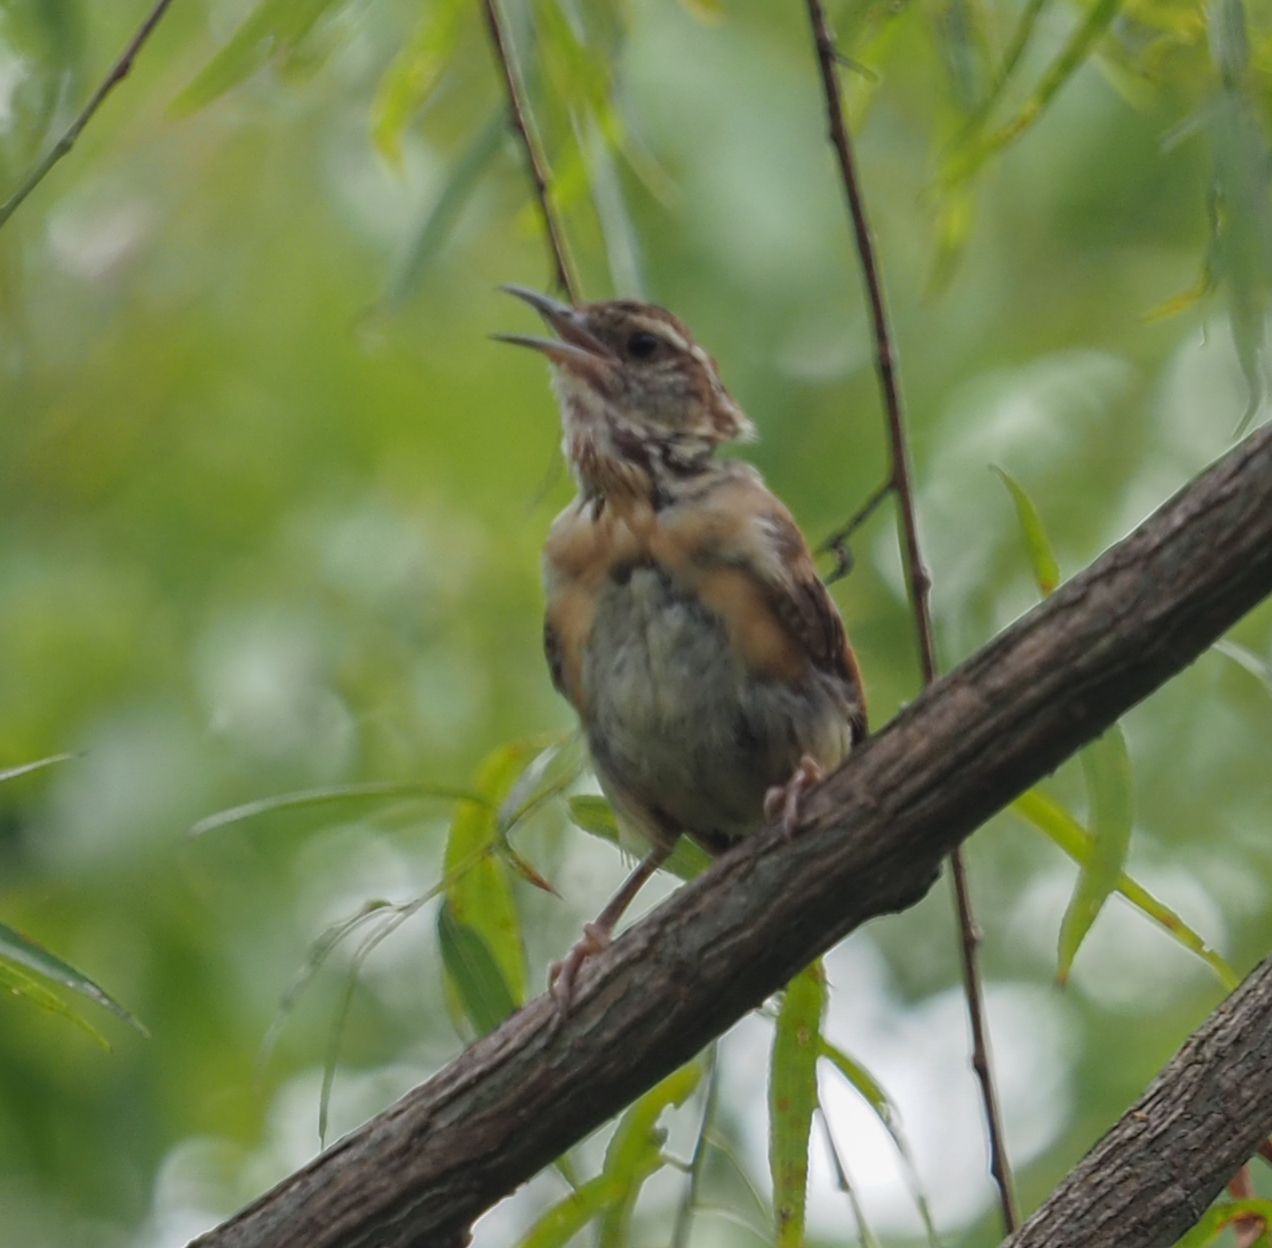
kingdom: Animalia
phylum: Chordata
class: Aves
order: Passeriformes
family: Troglodytidae
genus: Thryothorus
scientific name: Thryothorus ludovicianus
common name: Carolina wren
